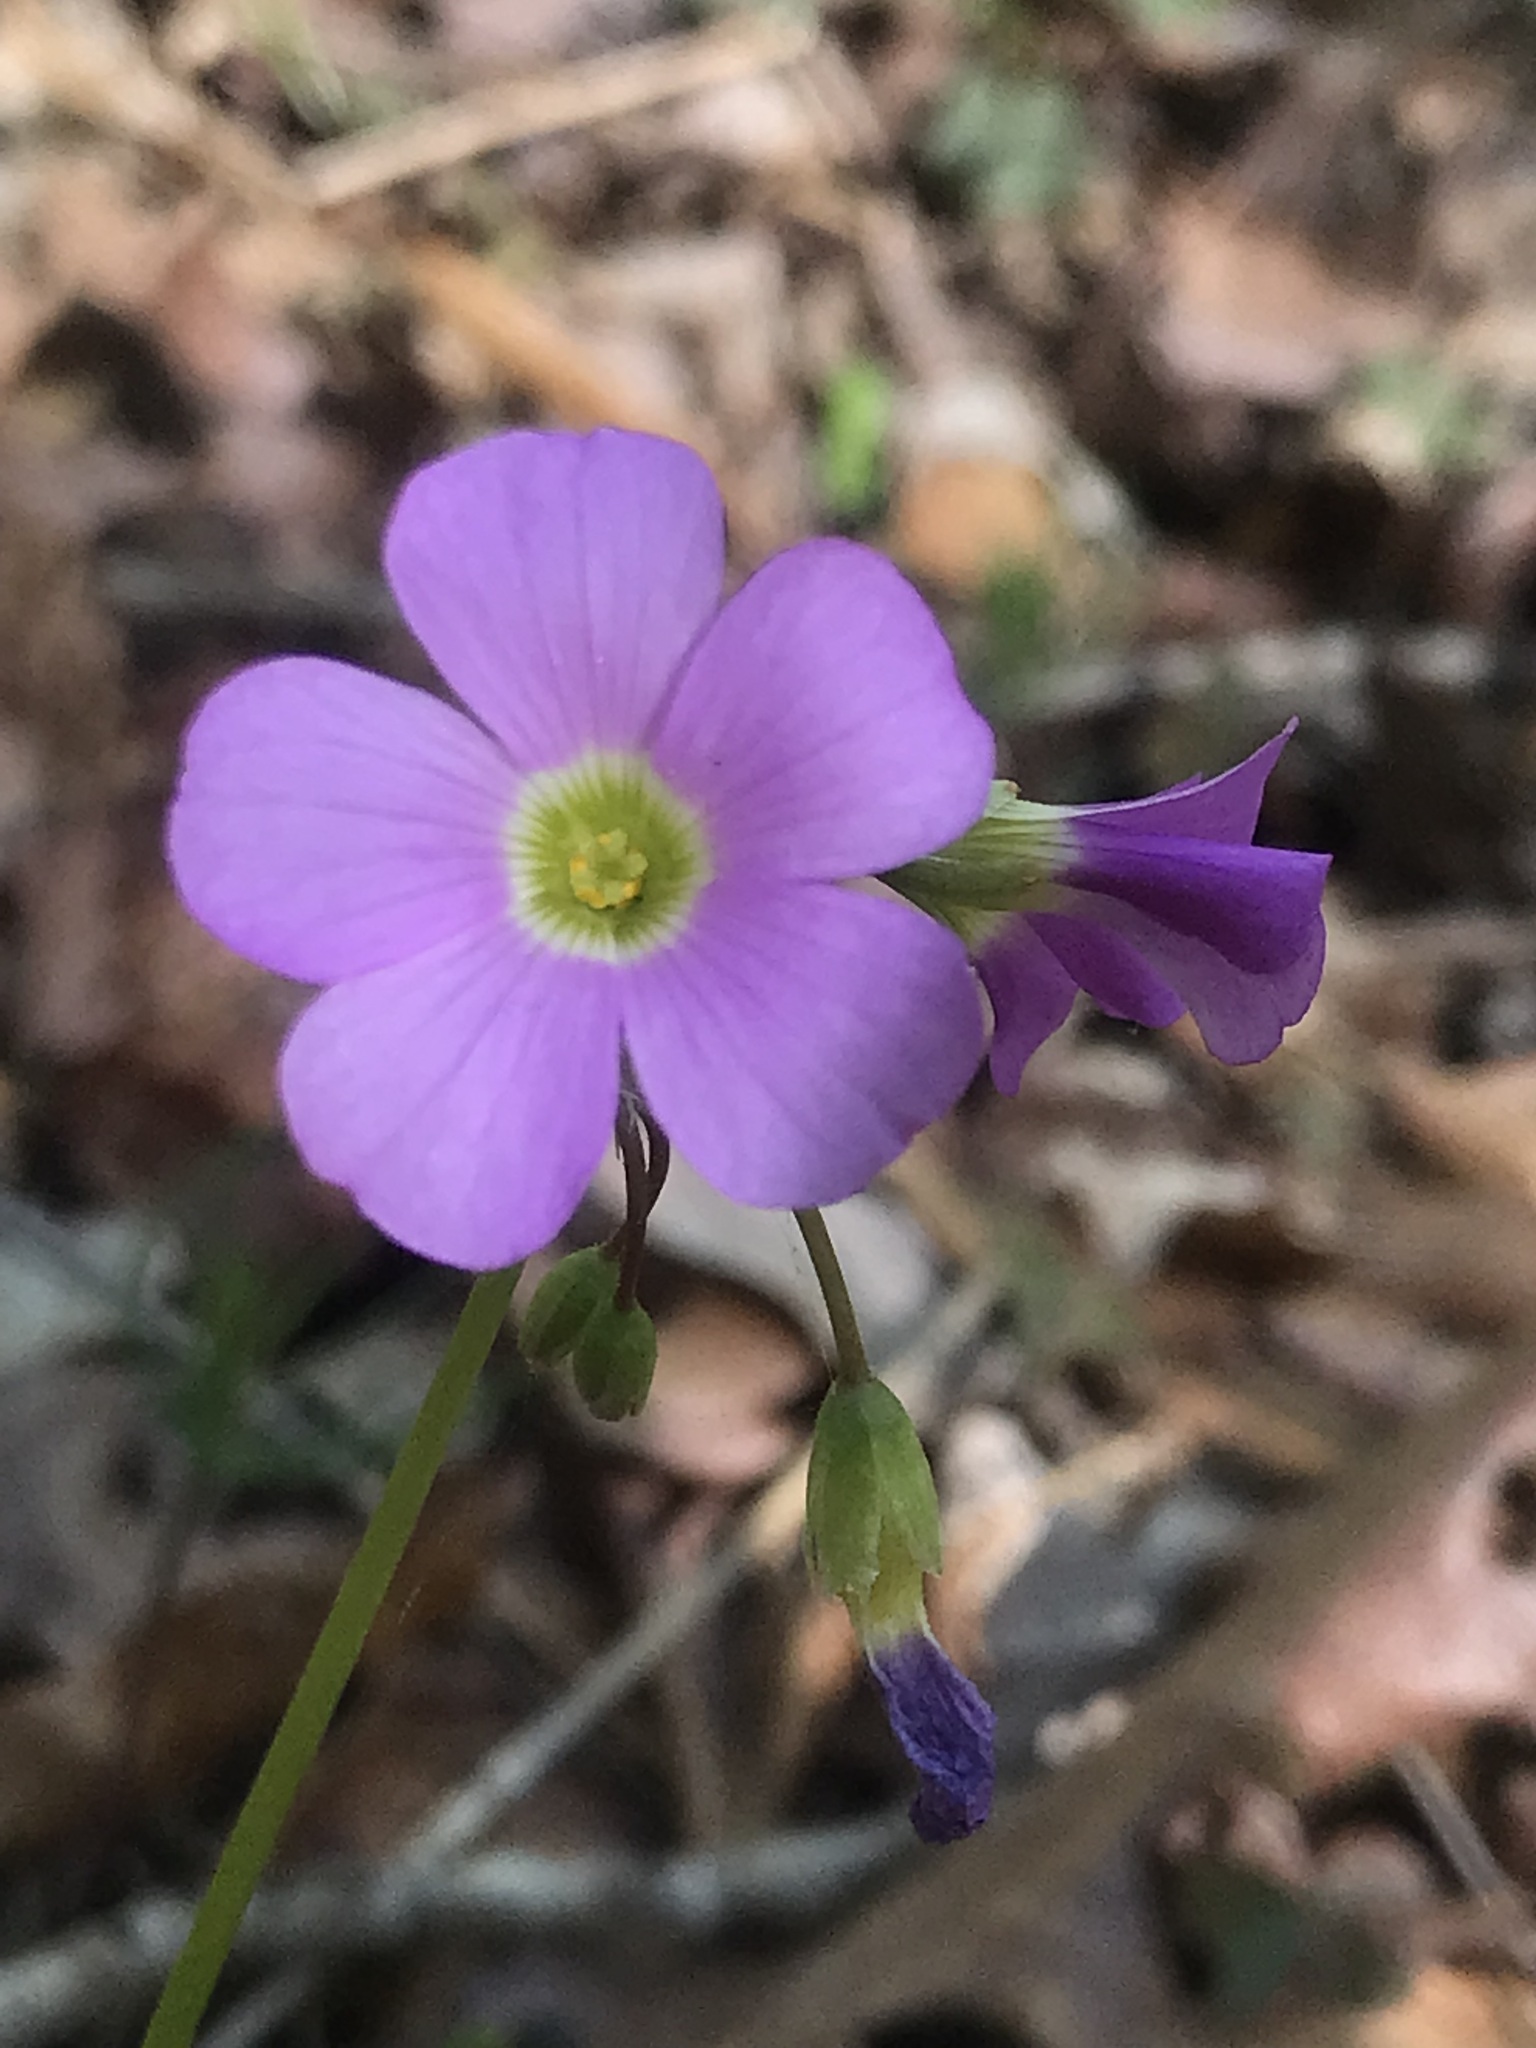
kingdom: Plantae
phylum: Tracheophyta
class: Magnoliopsida
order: Oxalidales
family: Oxalidaceae
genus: Oxalis
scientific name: Oxalis violacea
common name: Violet wood-sorrel
